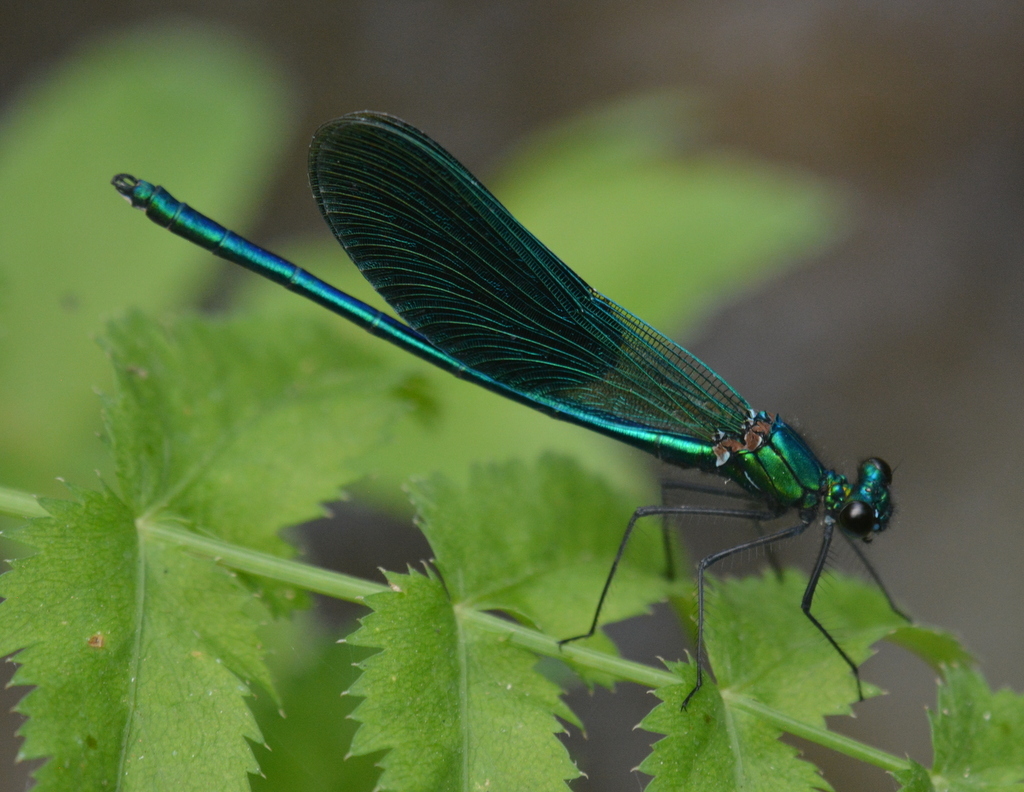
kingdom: Animalia
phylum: Arthropoda
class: Insecta
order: Odonata
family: Calopterygidae
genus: Calopteryx
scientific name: Calopteryx splendens
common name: Banded demoiselle
